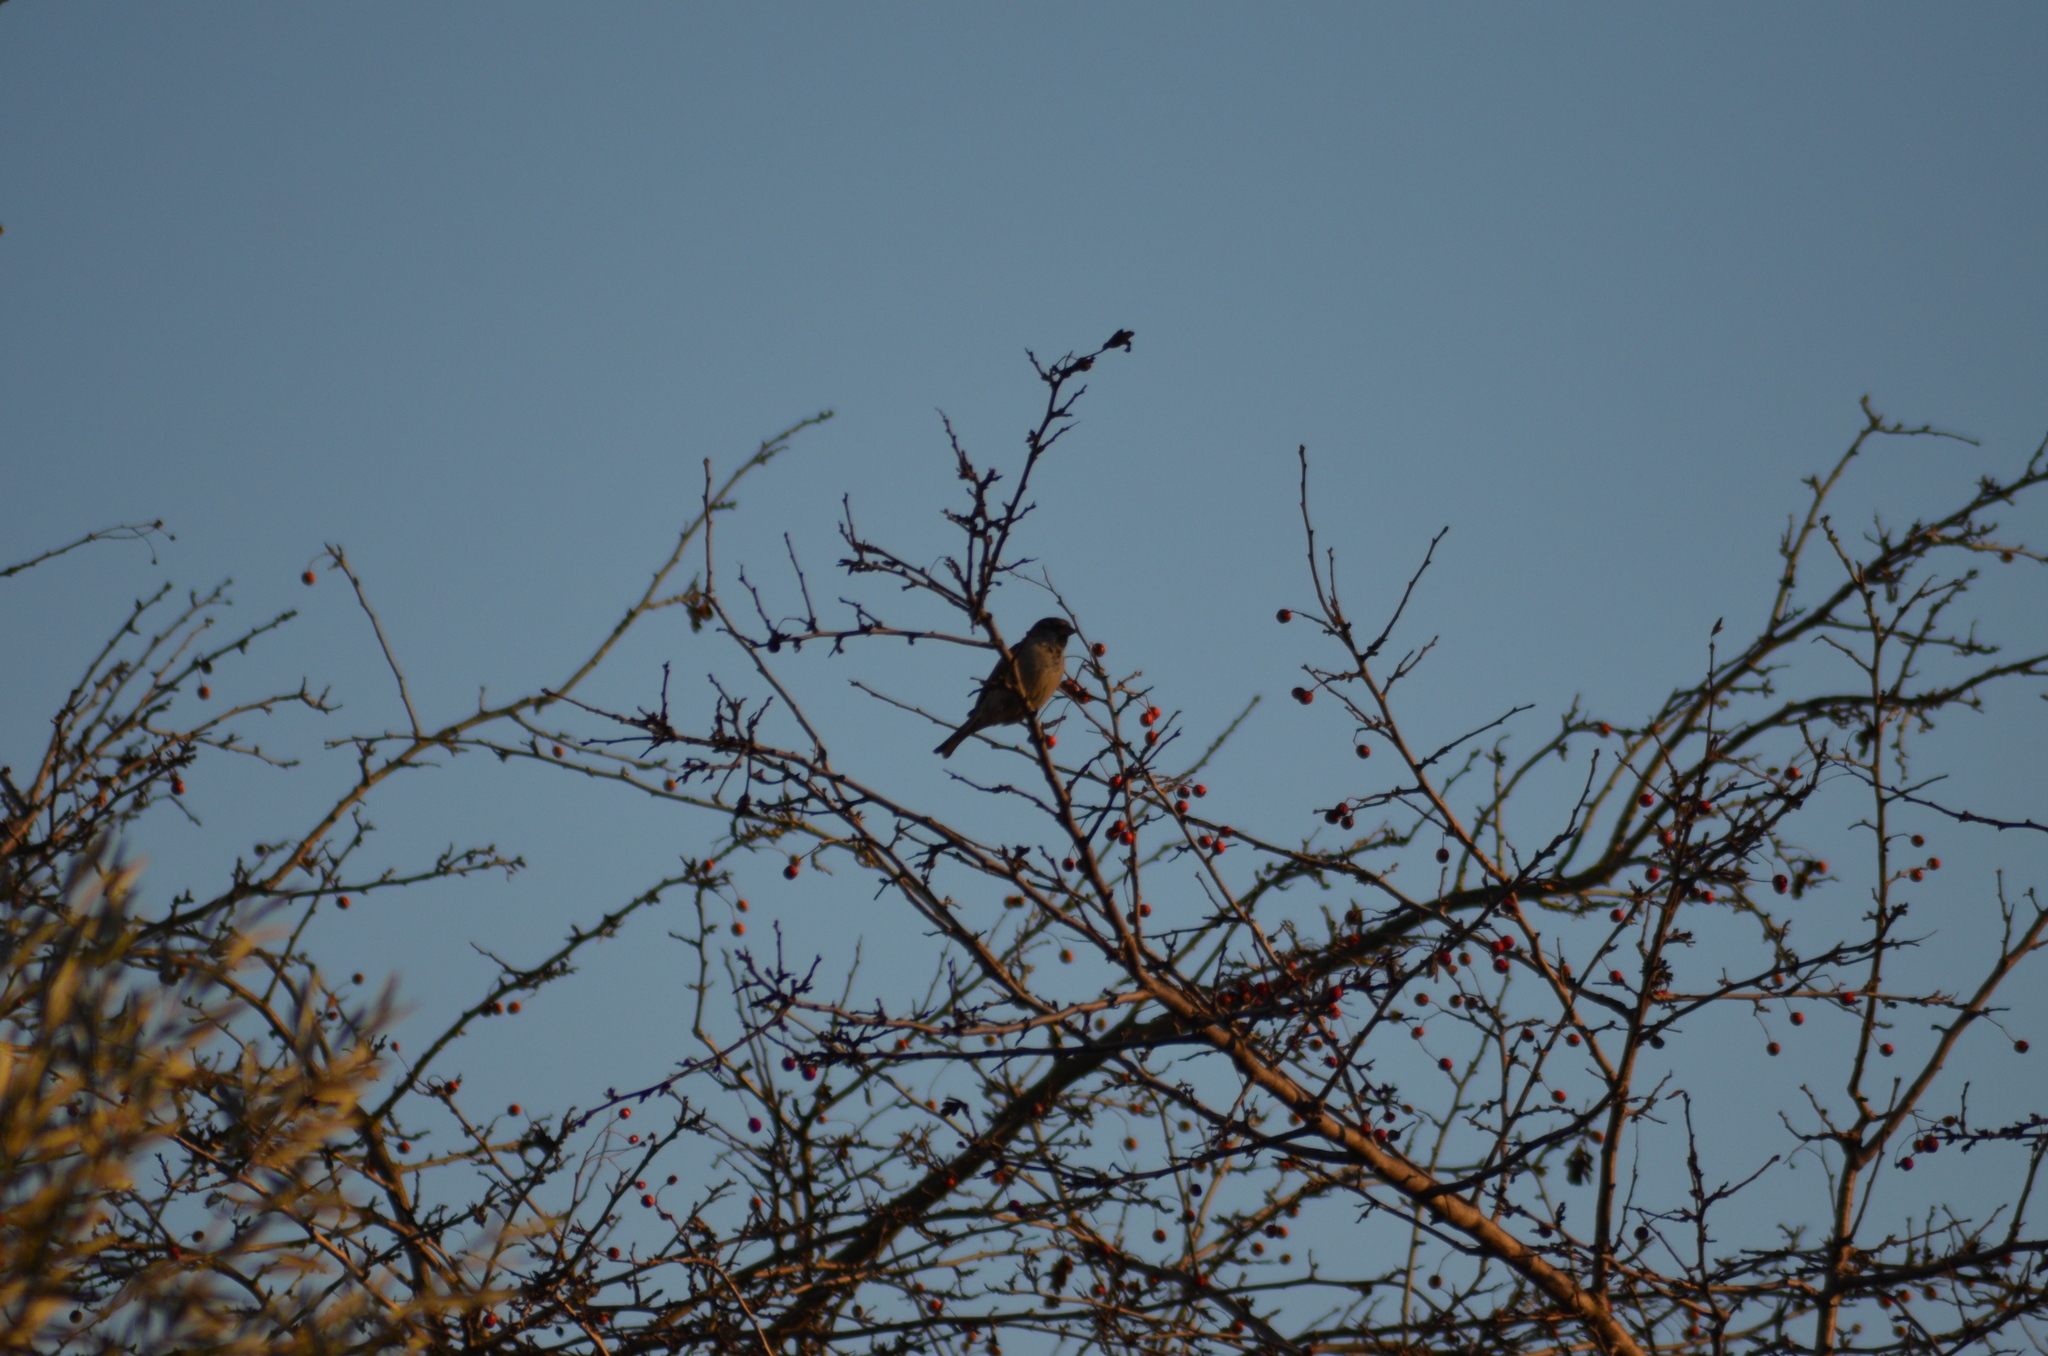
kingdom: Animalia
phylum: Chordata
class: Aves
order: Passeriformes
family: Passeridae
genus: Passer
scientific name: Passer domesticus
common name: House sparrow
